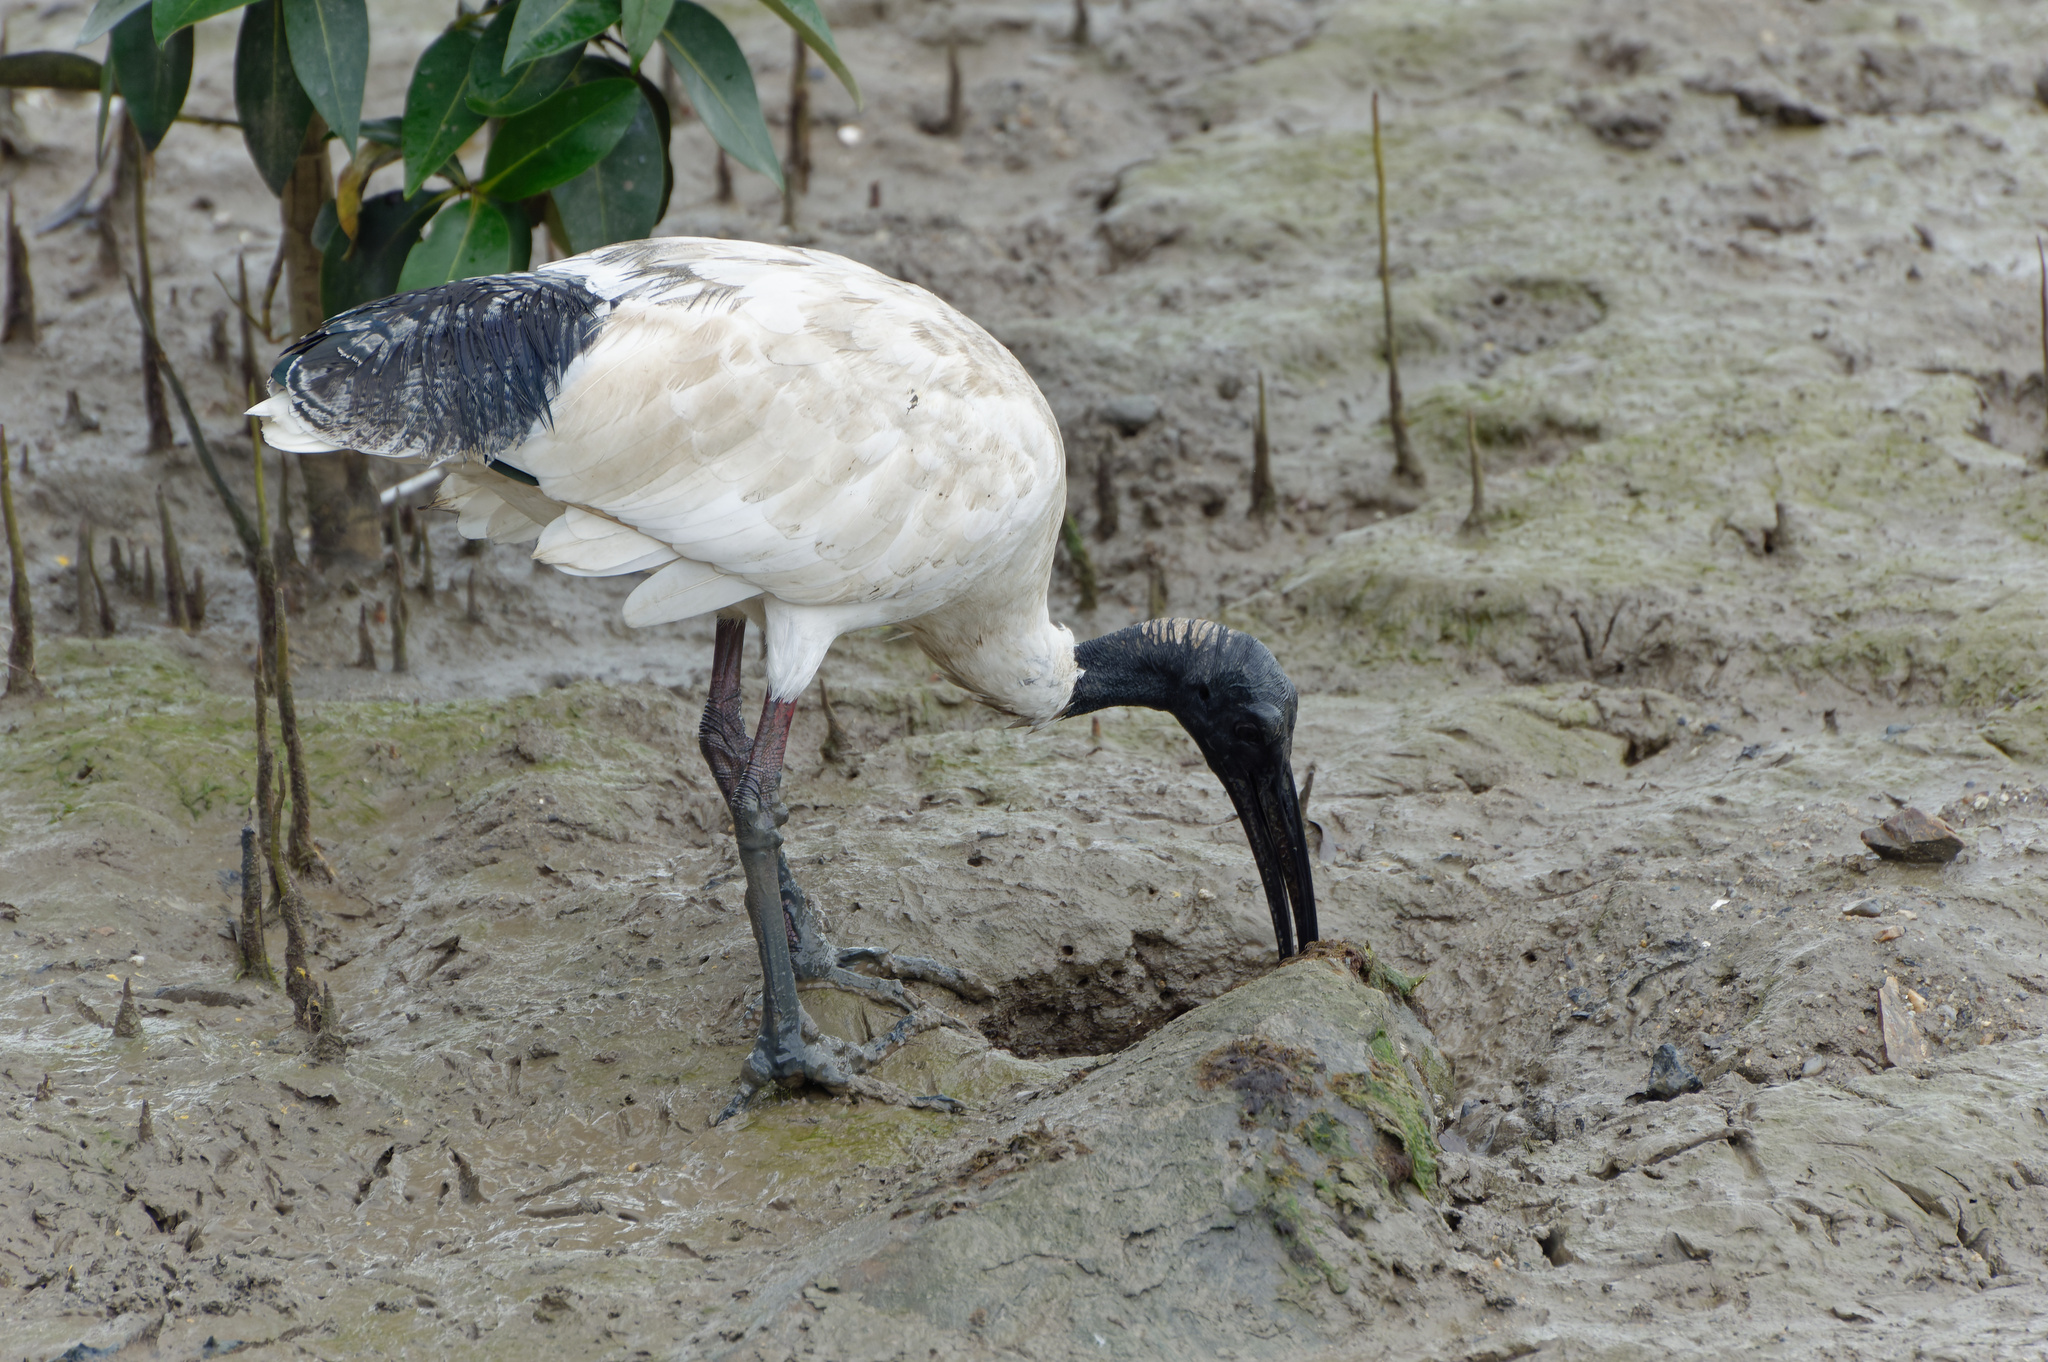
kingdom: Animalia
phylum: Chordata
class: Aves
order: Pelecaniformes
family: Threskiornithidae
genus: Threskiornis
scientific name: Threskiornis molucca
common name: Australian white ibis
